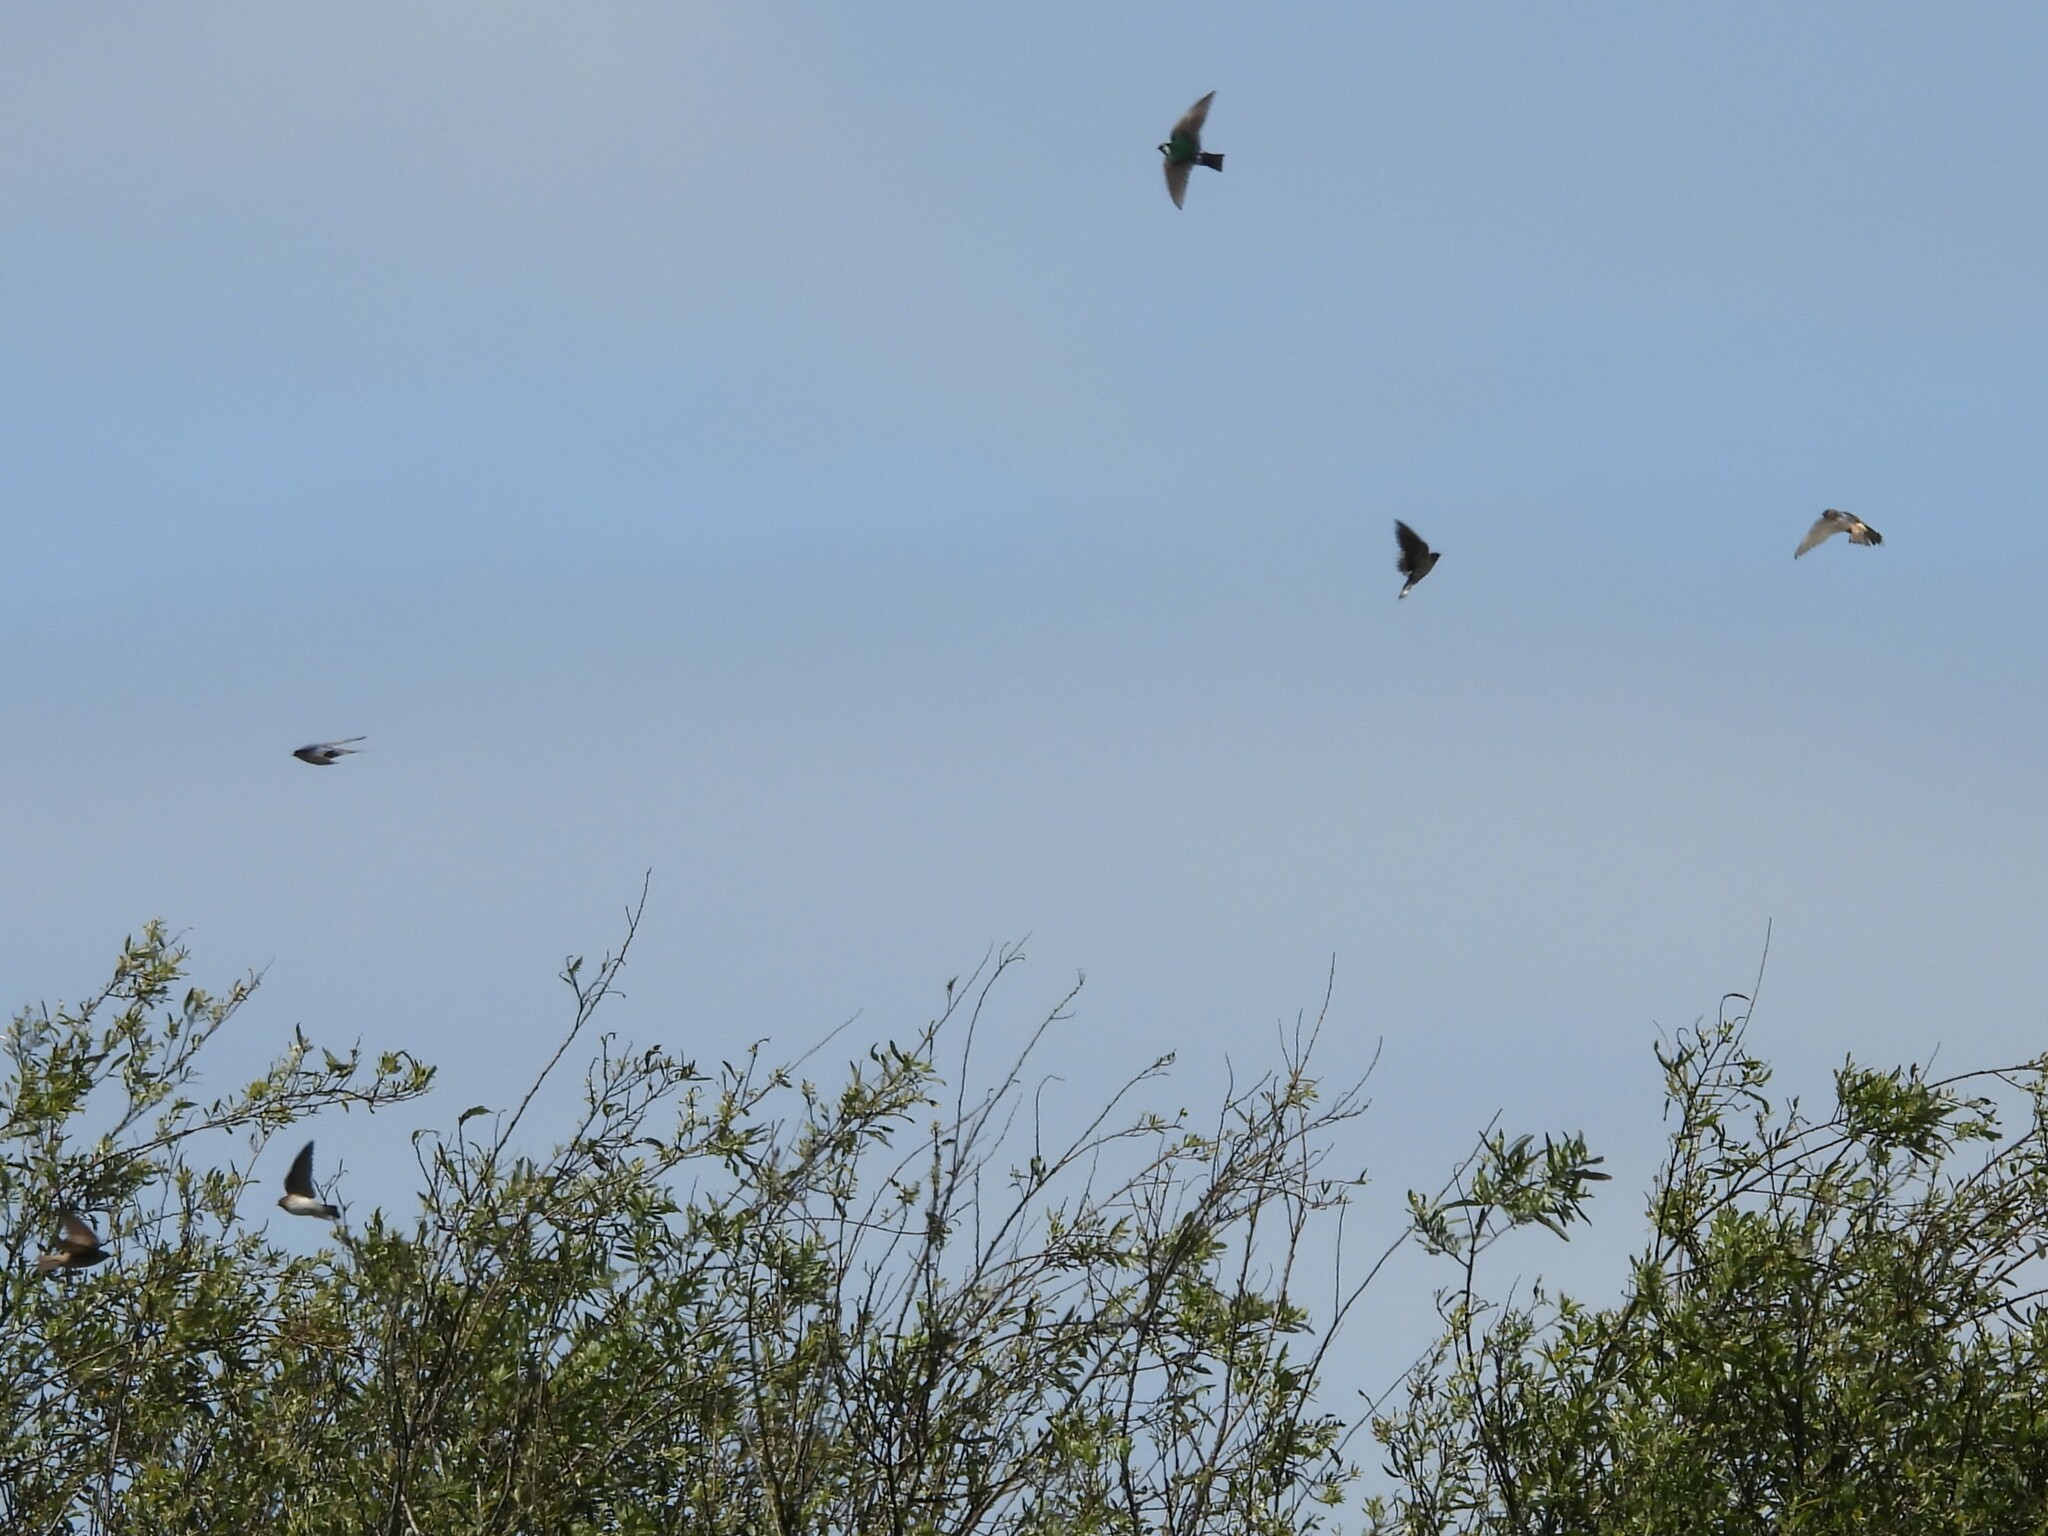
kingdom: Animalia
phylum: Chordata
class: Aves
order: Passeriformes
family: Hirundinidae
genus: Petrochelidon
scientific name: Petrochelidon pyrrhonota
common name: American cliff swallow
